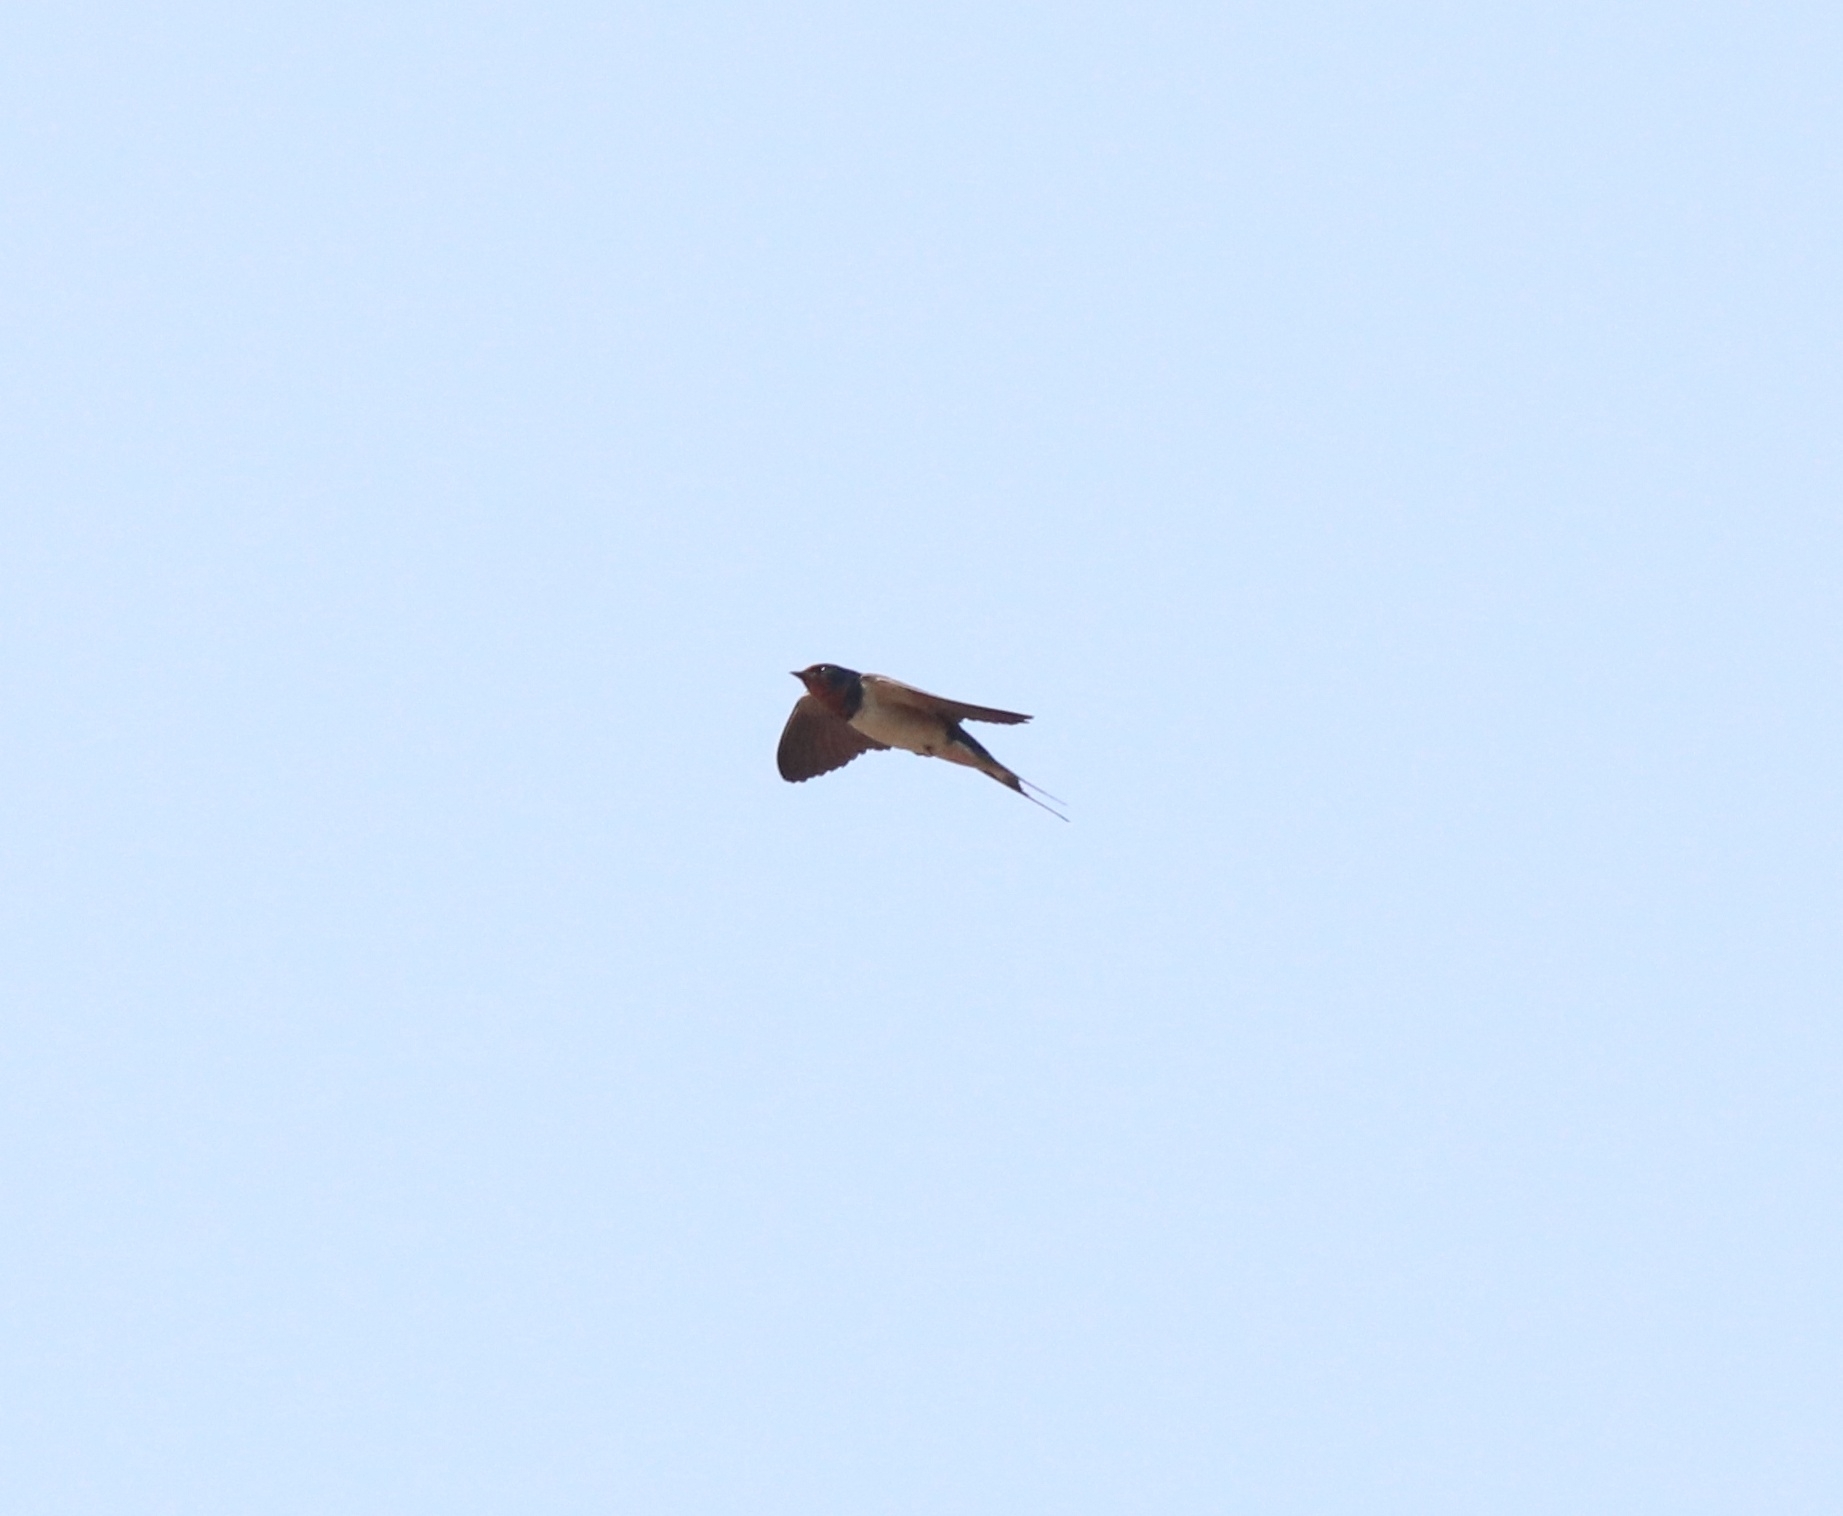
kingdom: Animalia
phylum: Chordata
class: Aves
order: Passeriformes
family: Hirundinidae
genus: Hirundo
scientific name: Hirundo rustica
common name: Barn swallow
